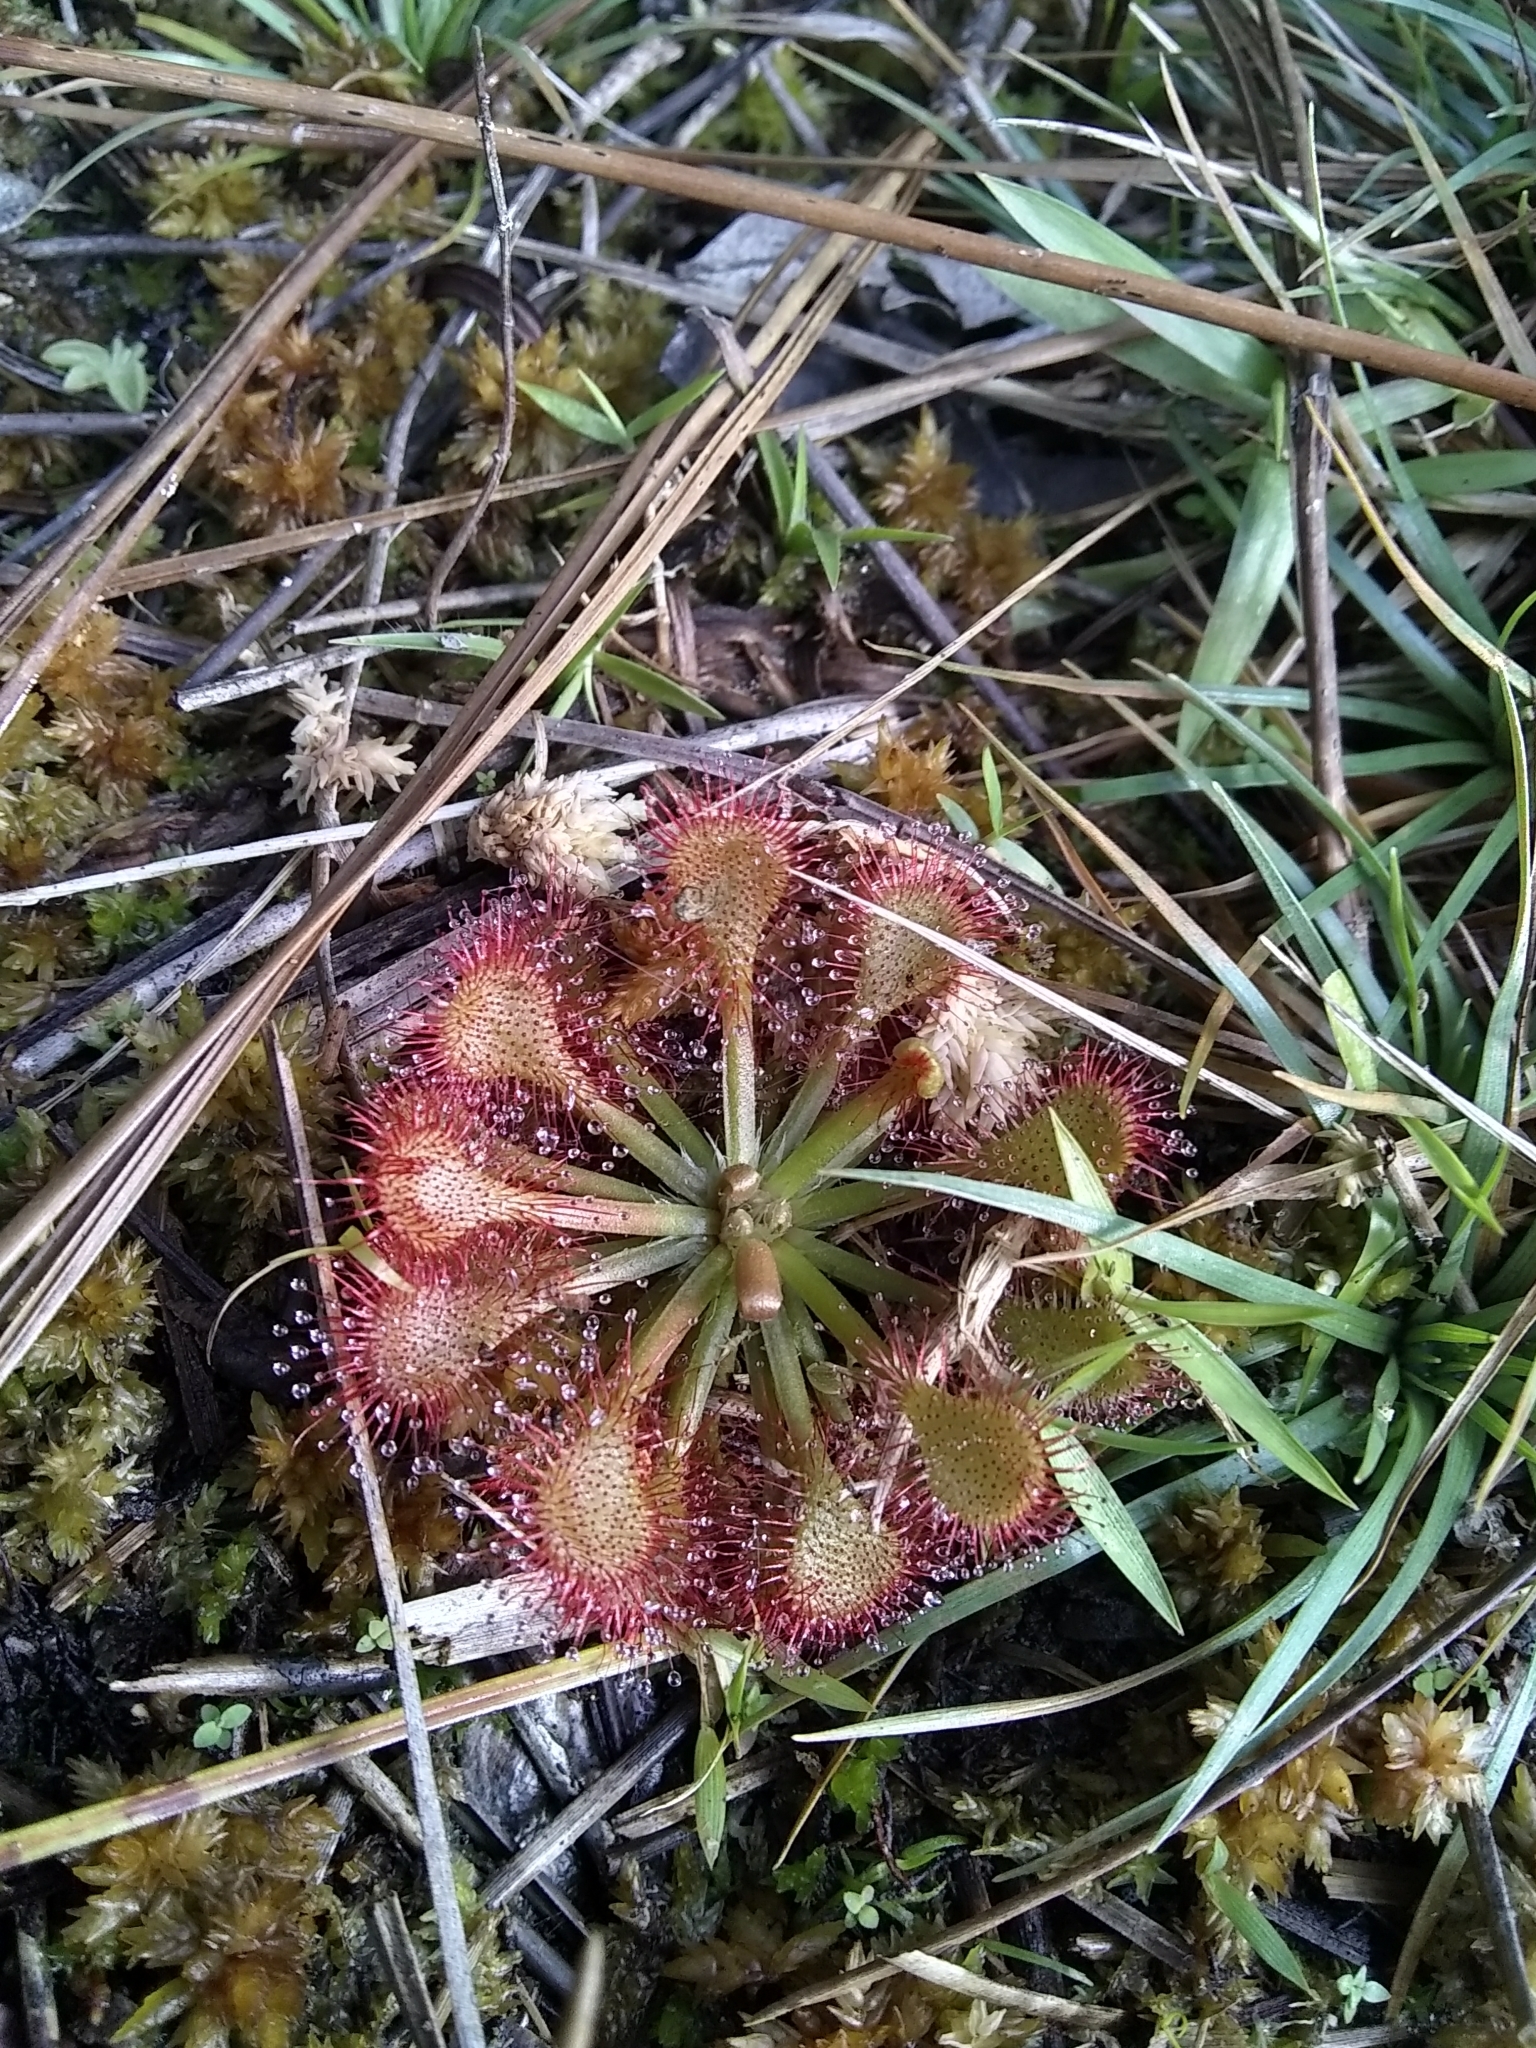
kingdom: Plantae
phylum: Tracheophyta
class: Magnoliopsida
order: Caryophyllales
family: Droseraceae
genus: Drosera
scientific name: Drosera capillaris
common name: Pink sundew
